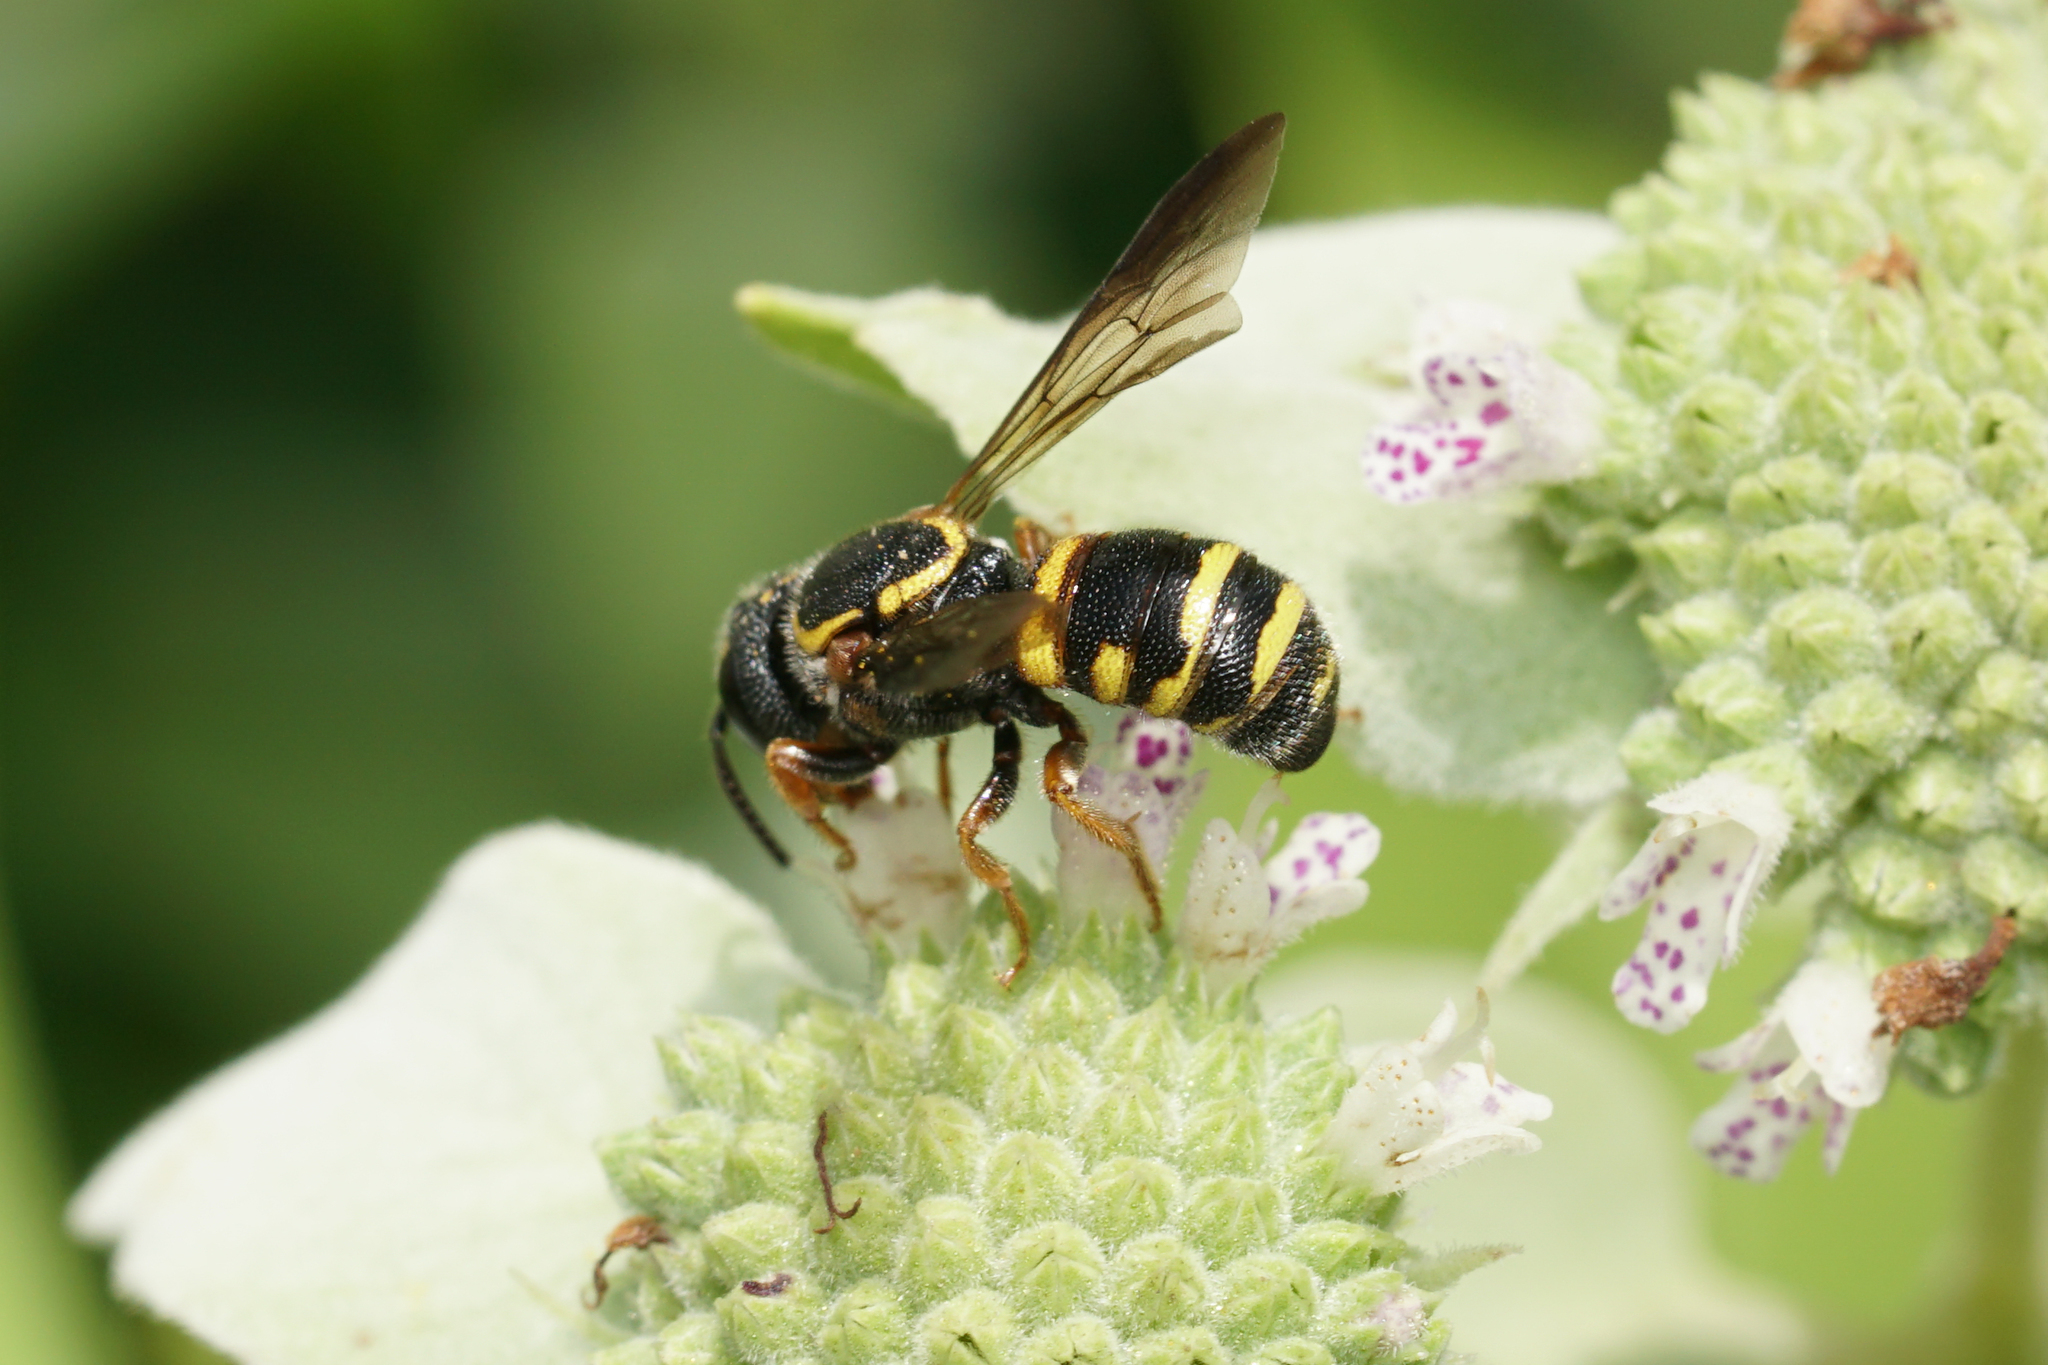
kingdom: Animalia
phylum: Arthropoda
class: Insecta
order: Hymenoptera
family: Megachilidae
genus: Stelis
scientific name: Stelis louisae
